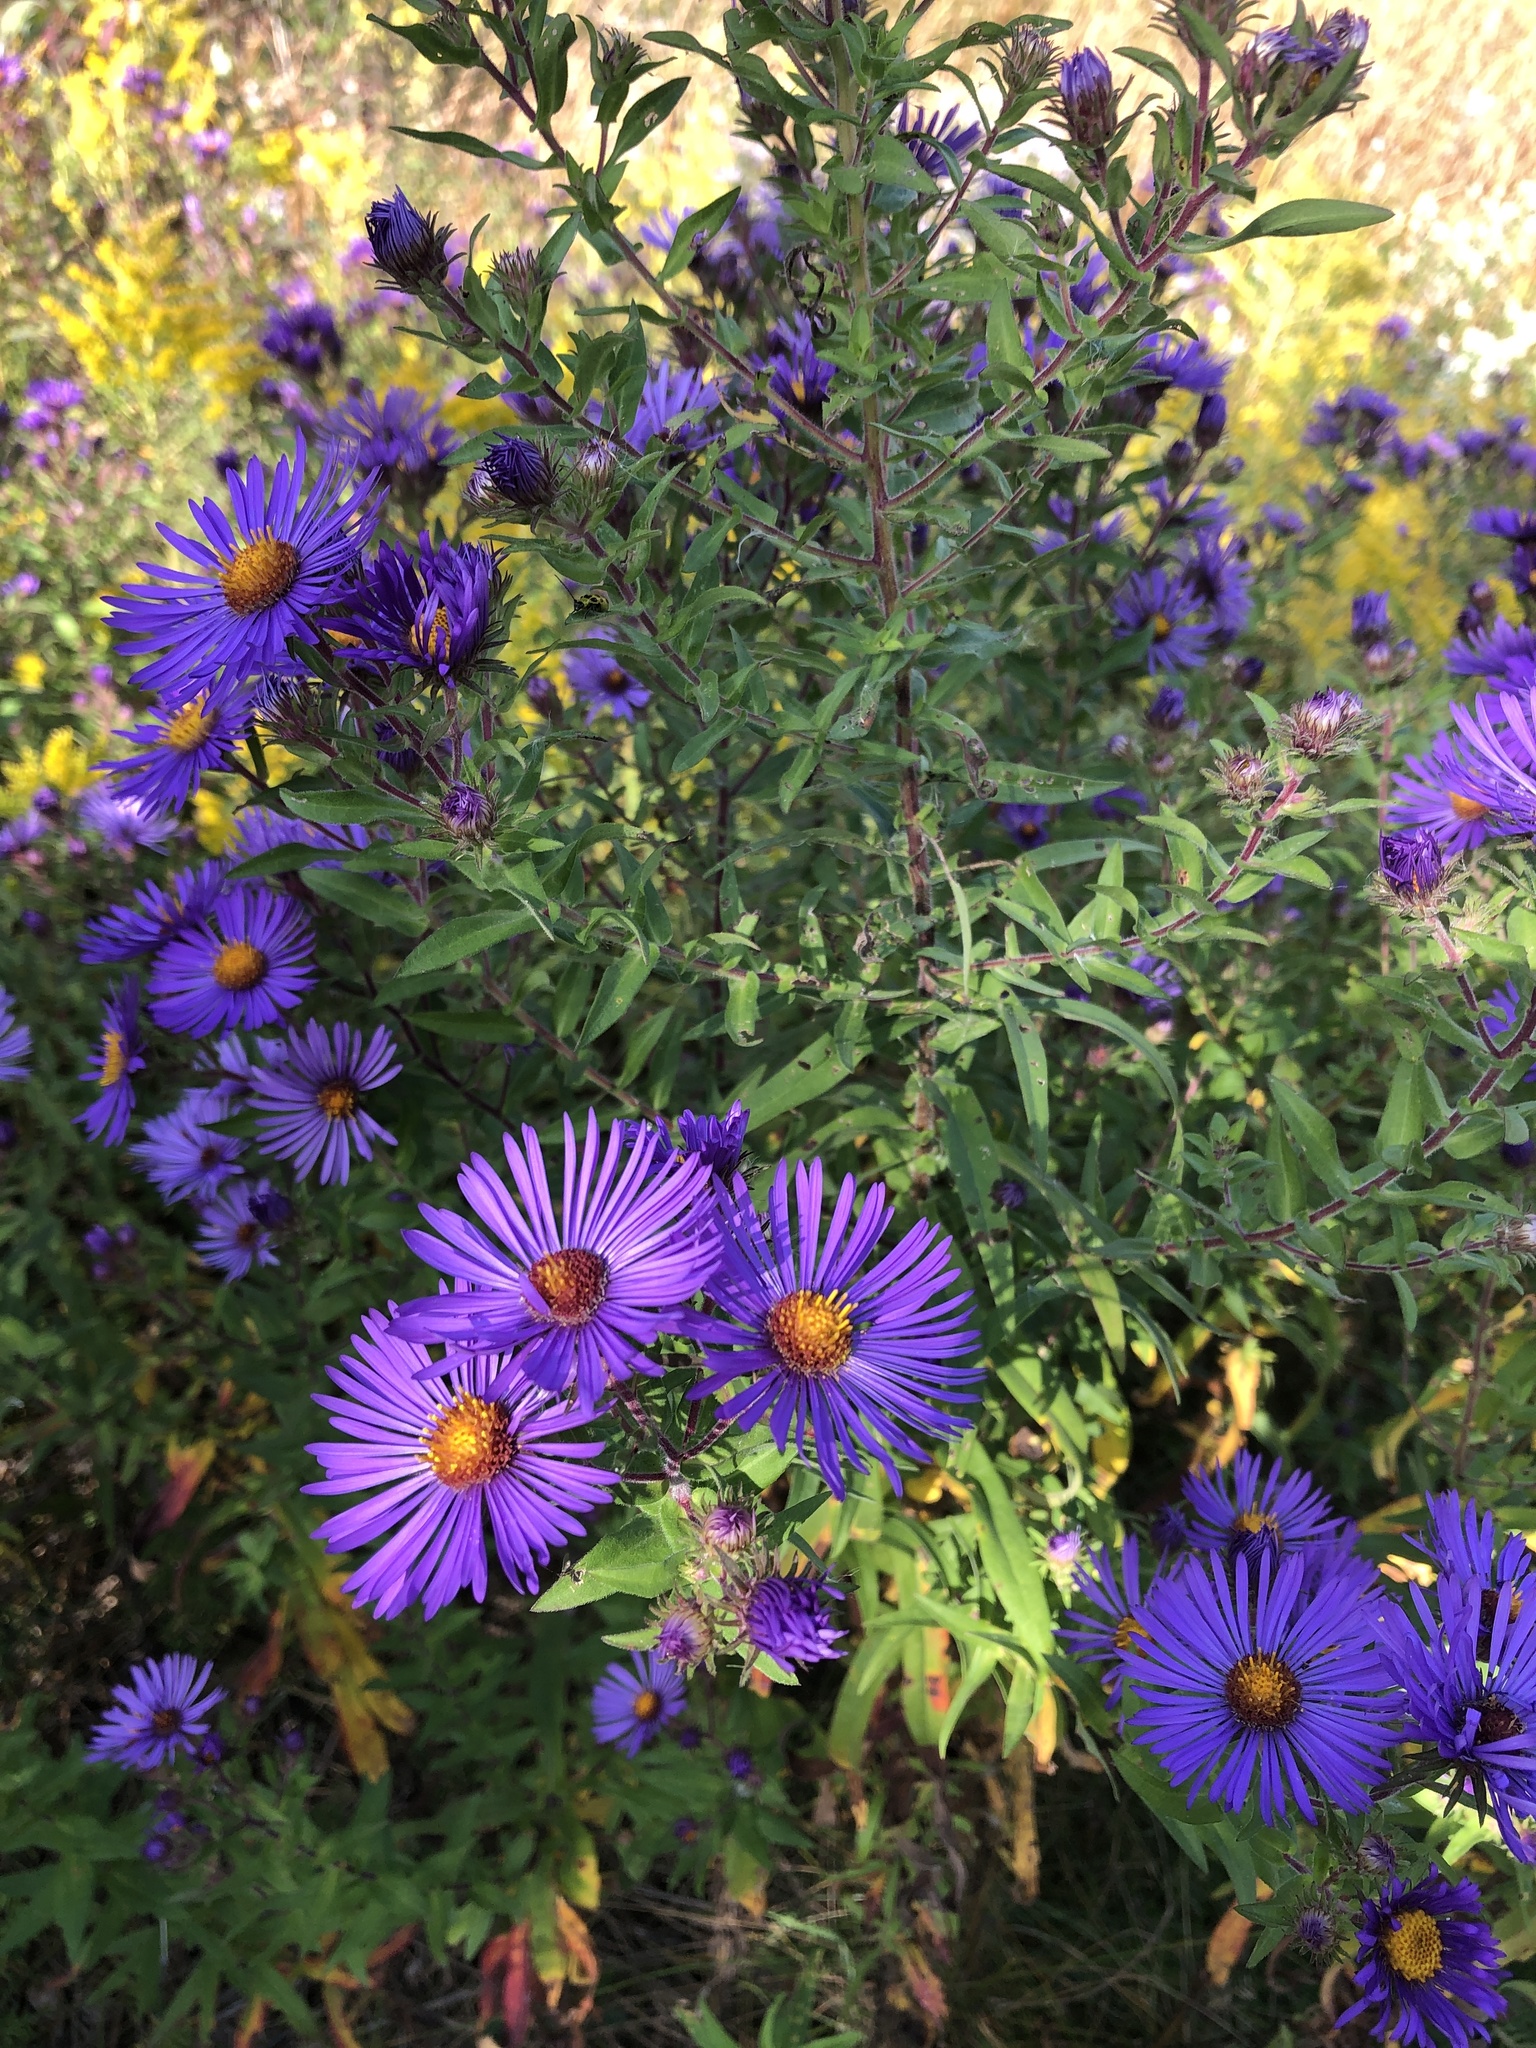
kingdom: Plantae
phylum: Tracheophyta
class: Magnoliopsida
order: Asterales
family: Asteraceae
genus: Symphyotrichum
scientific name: Symphyotrichum novae-angliae
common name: Michaelmas daisy
